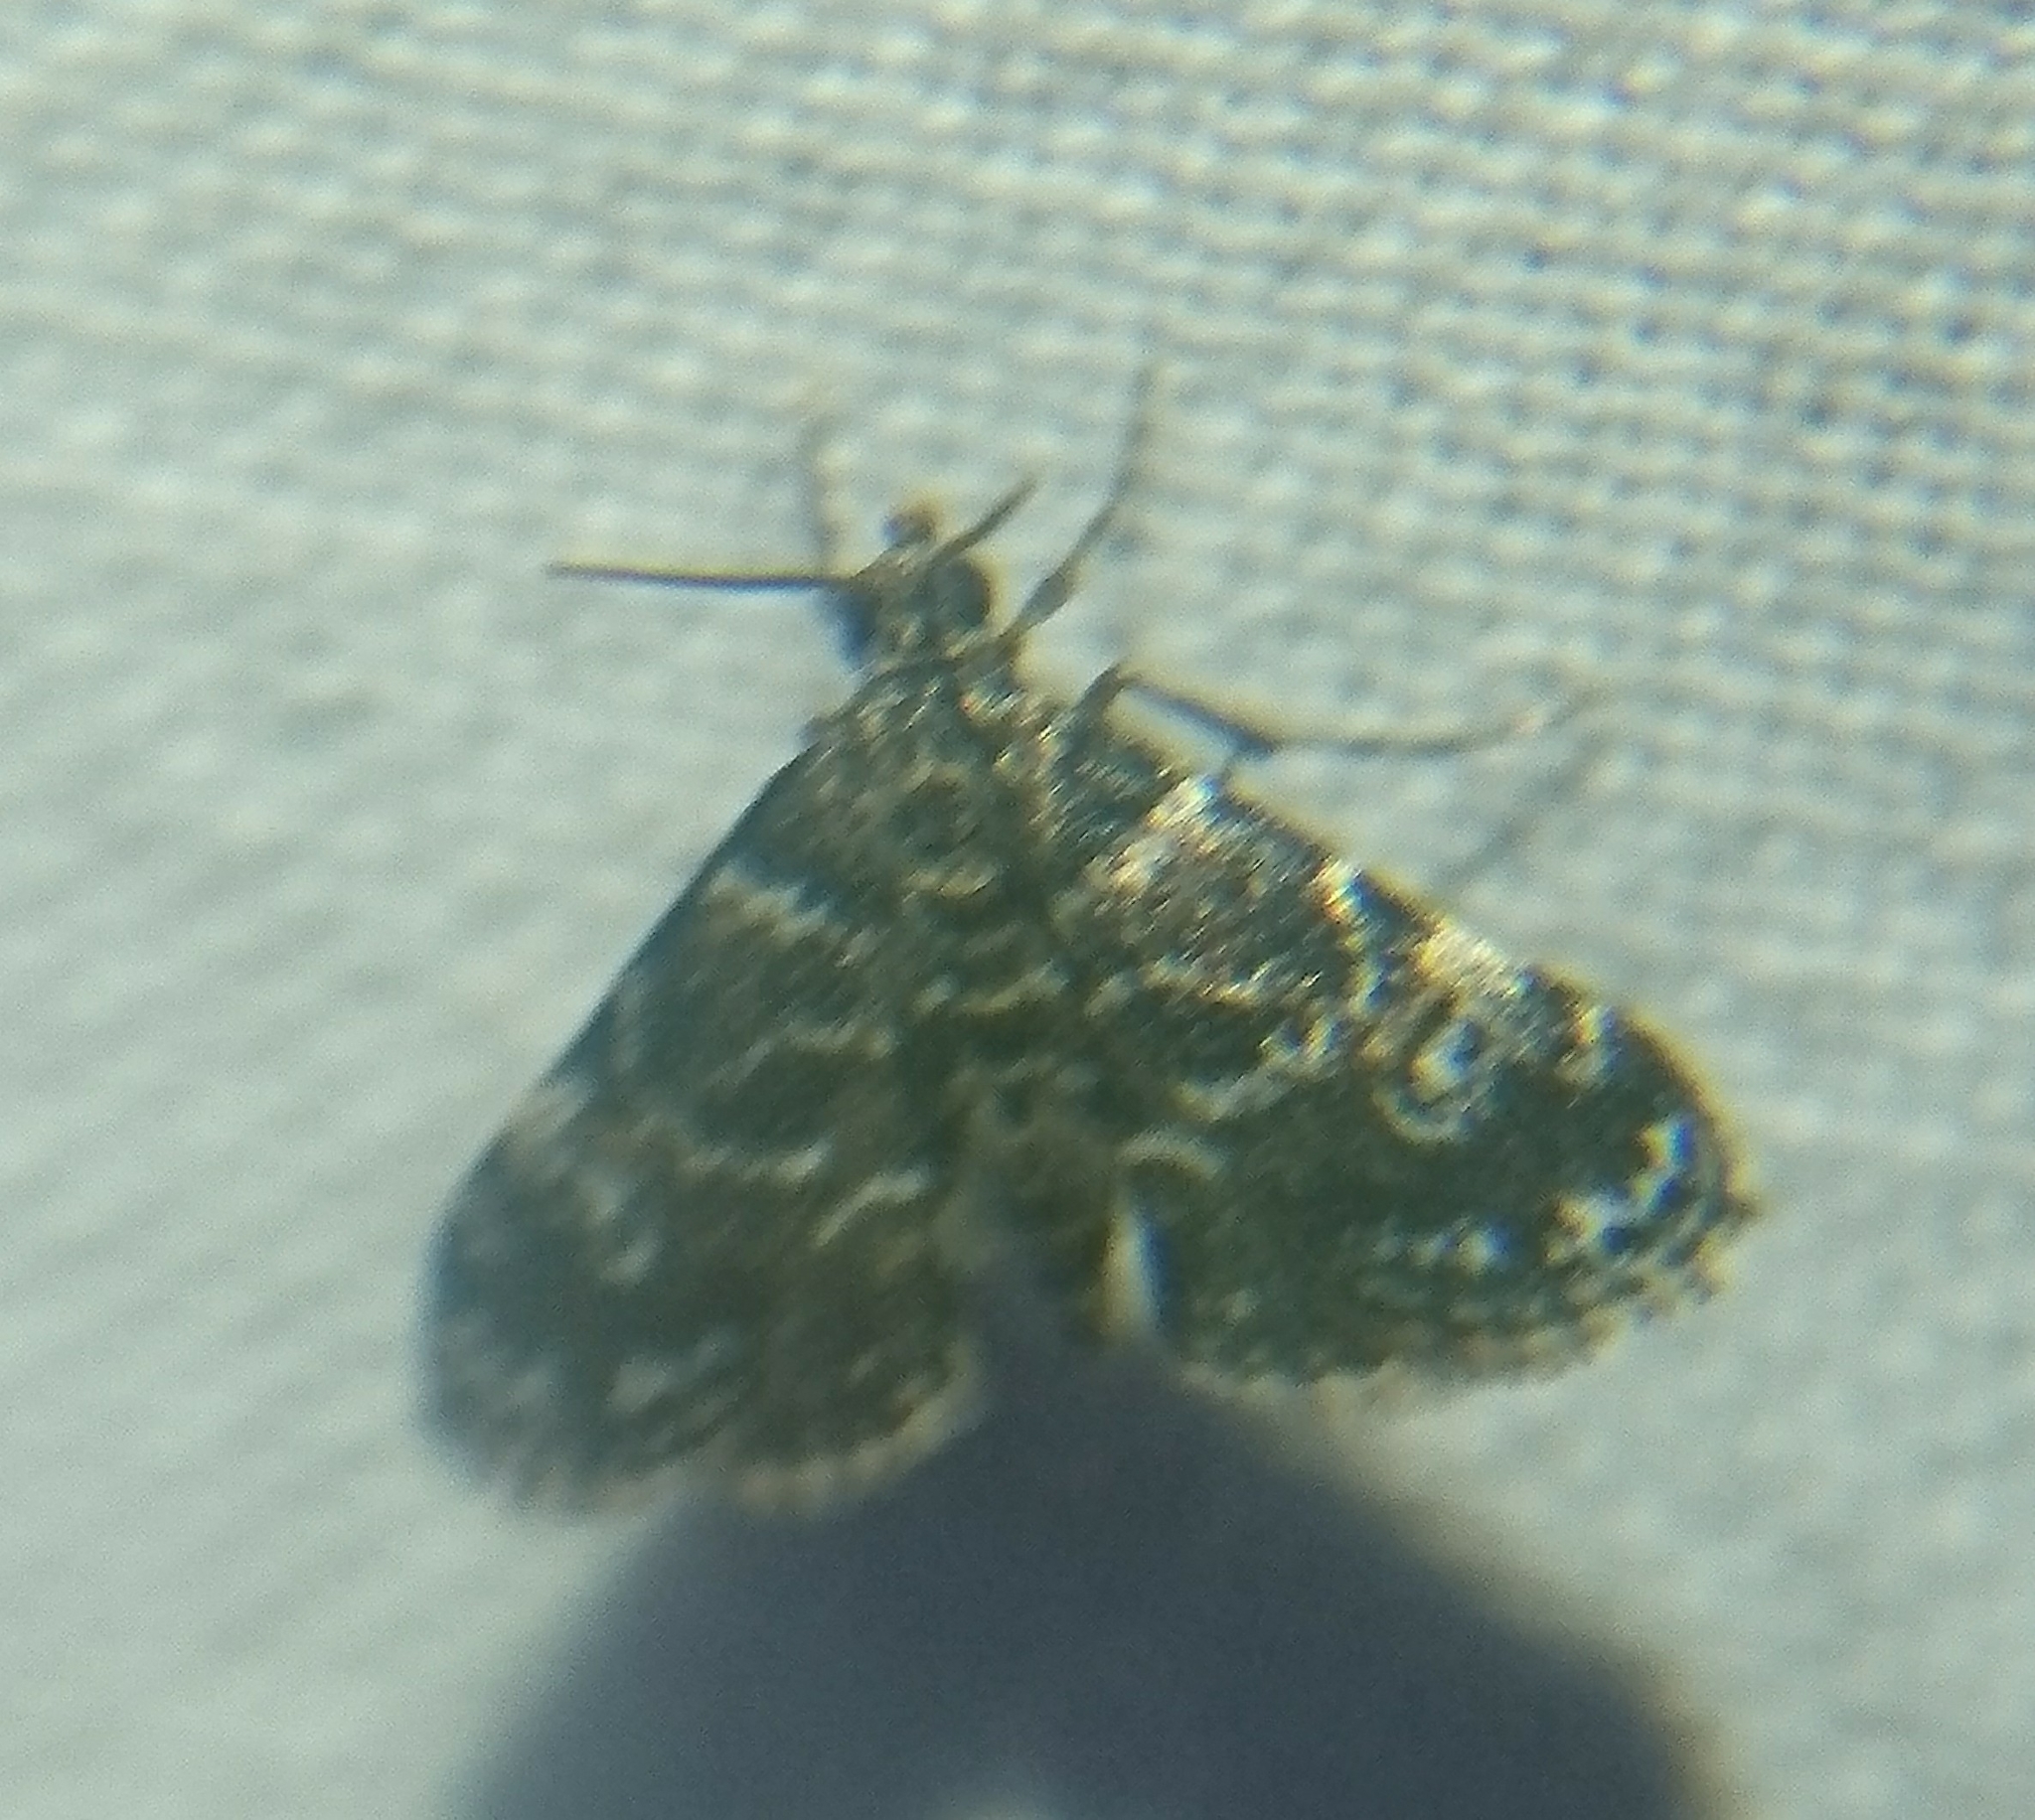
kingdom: Animalia
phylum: Arthropoda
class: Insecta
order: Lepidoptera
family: Crambidae
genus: Elophila
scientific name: Elophila obliteralis
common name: Waterlily leafcutter moth
